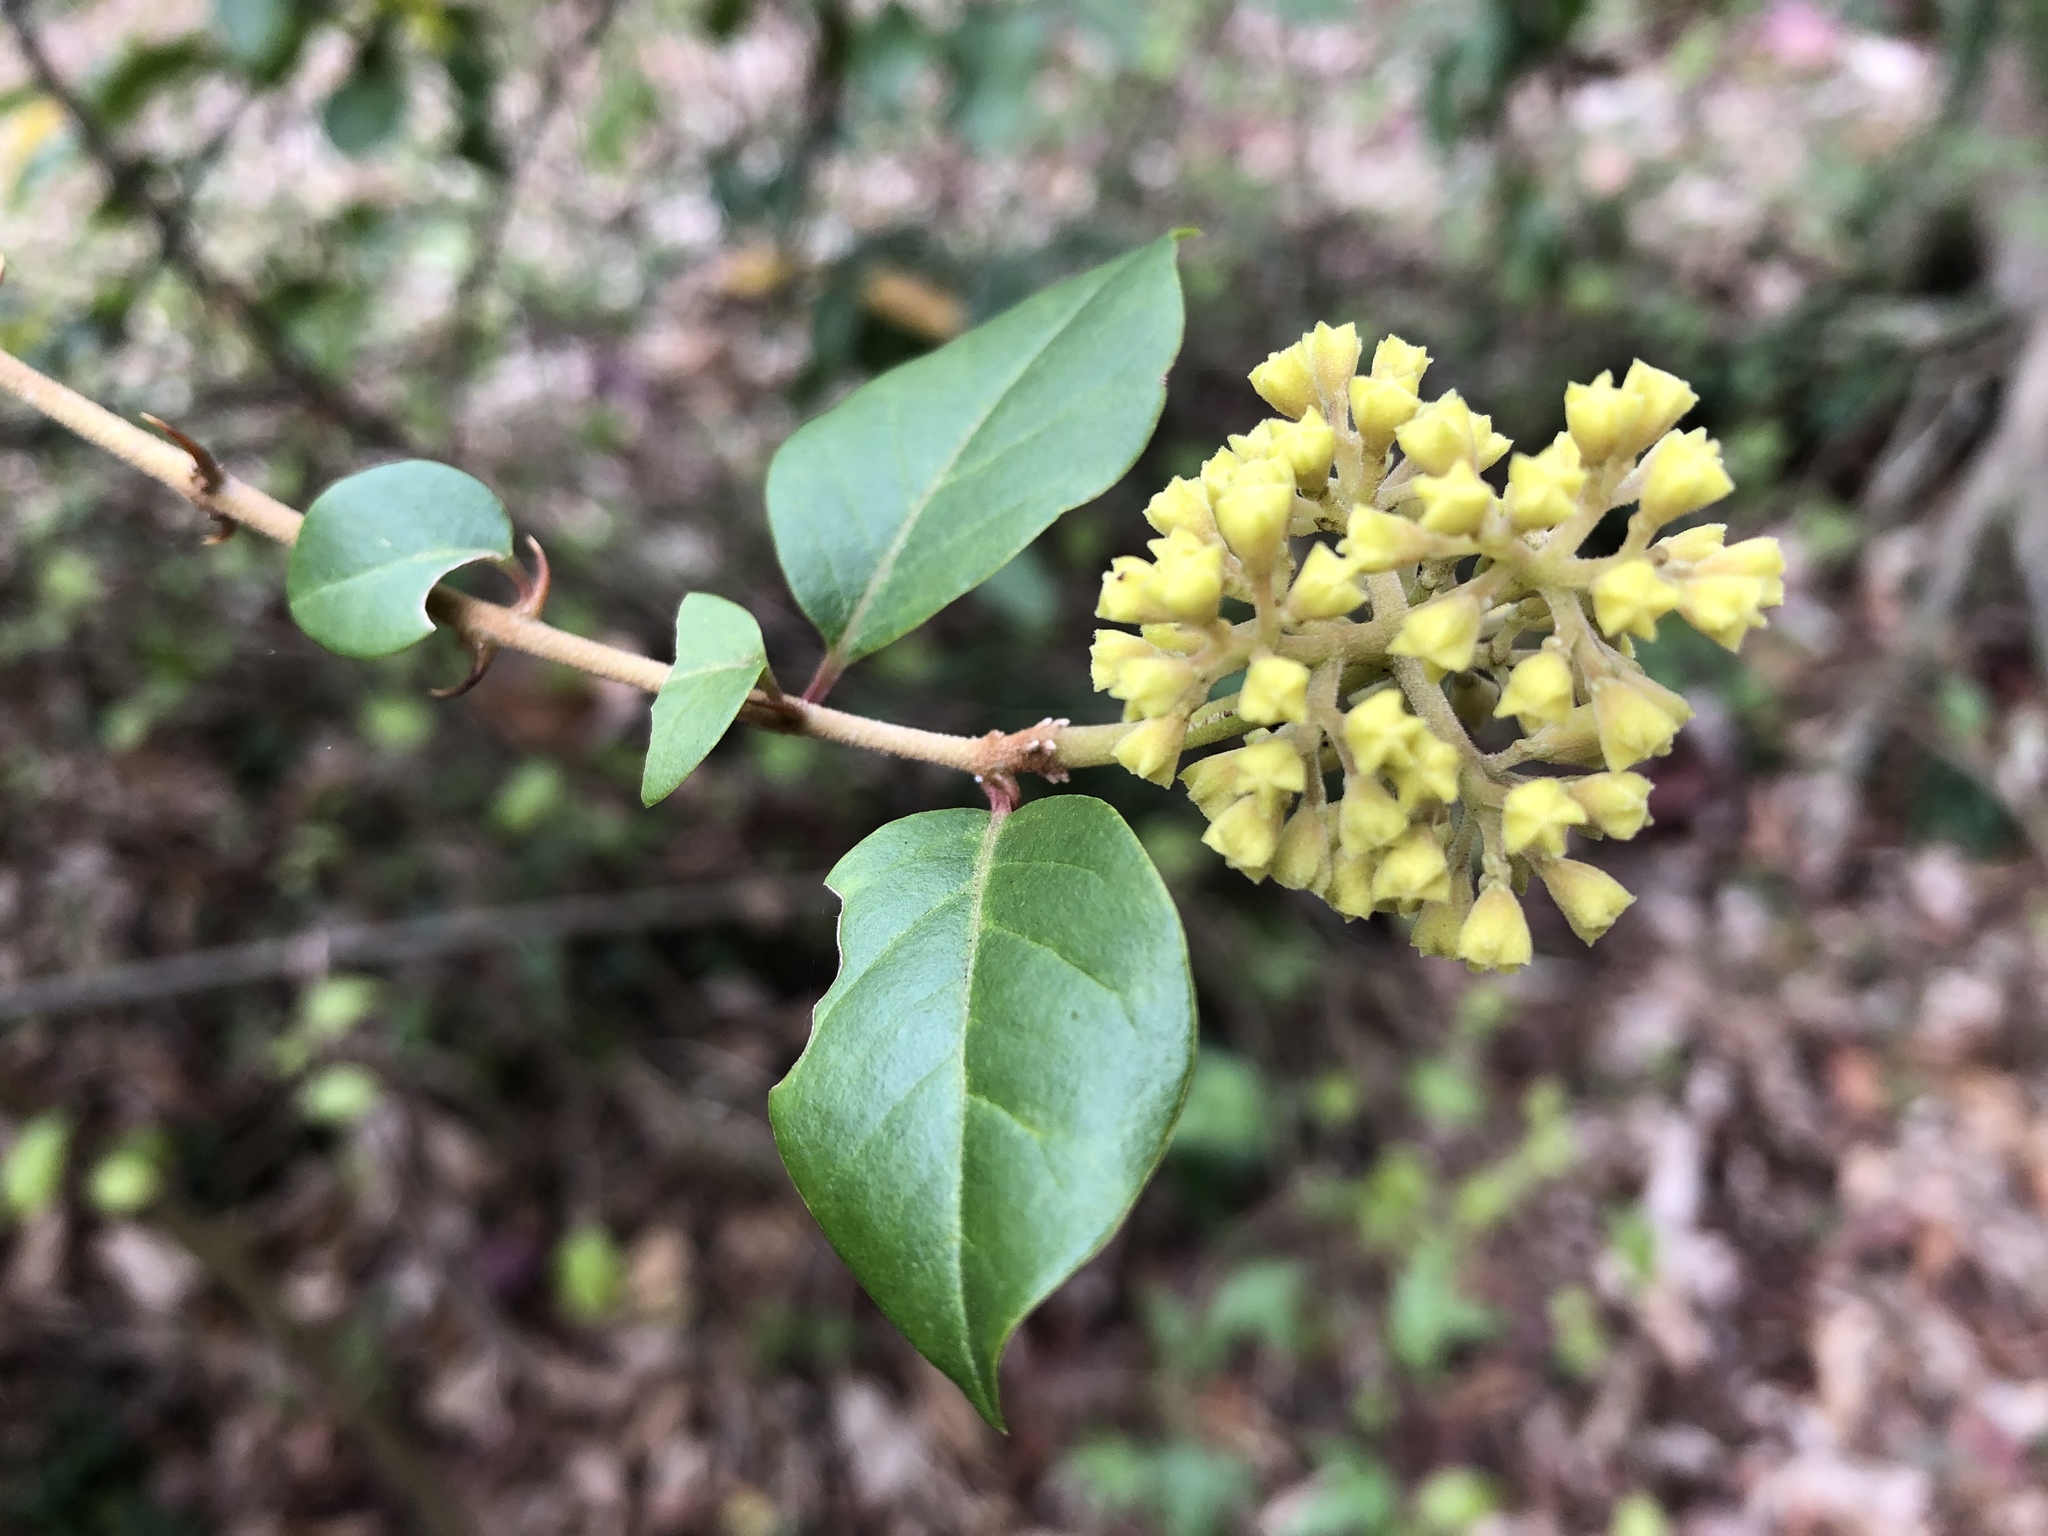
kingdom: Plantae
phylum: Tracheophyta
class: Magnoliopsida
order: Caryophyllales
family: Nyctaginaceae
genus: Pisonia
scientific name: Pisonia aculeata
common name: Cockspur vine
